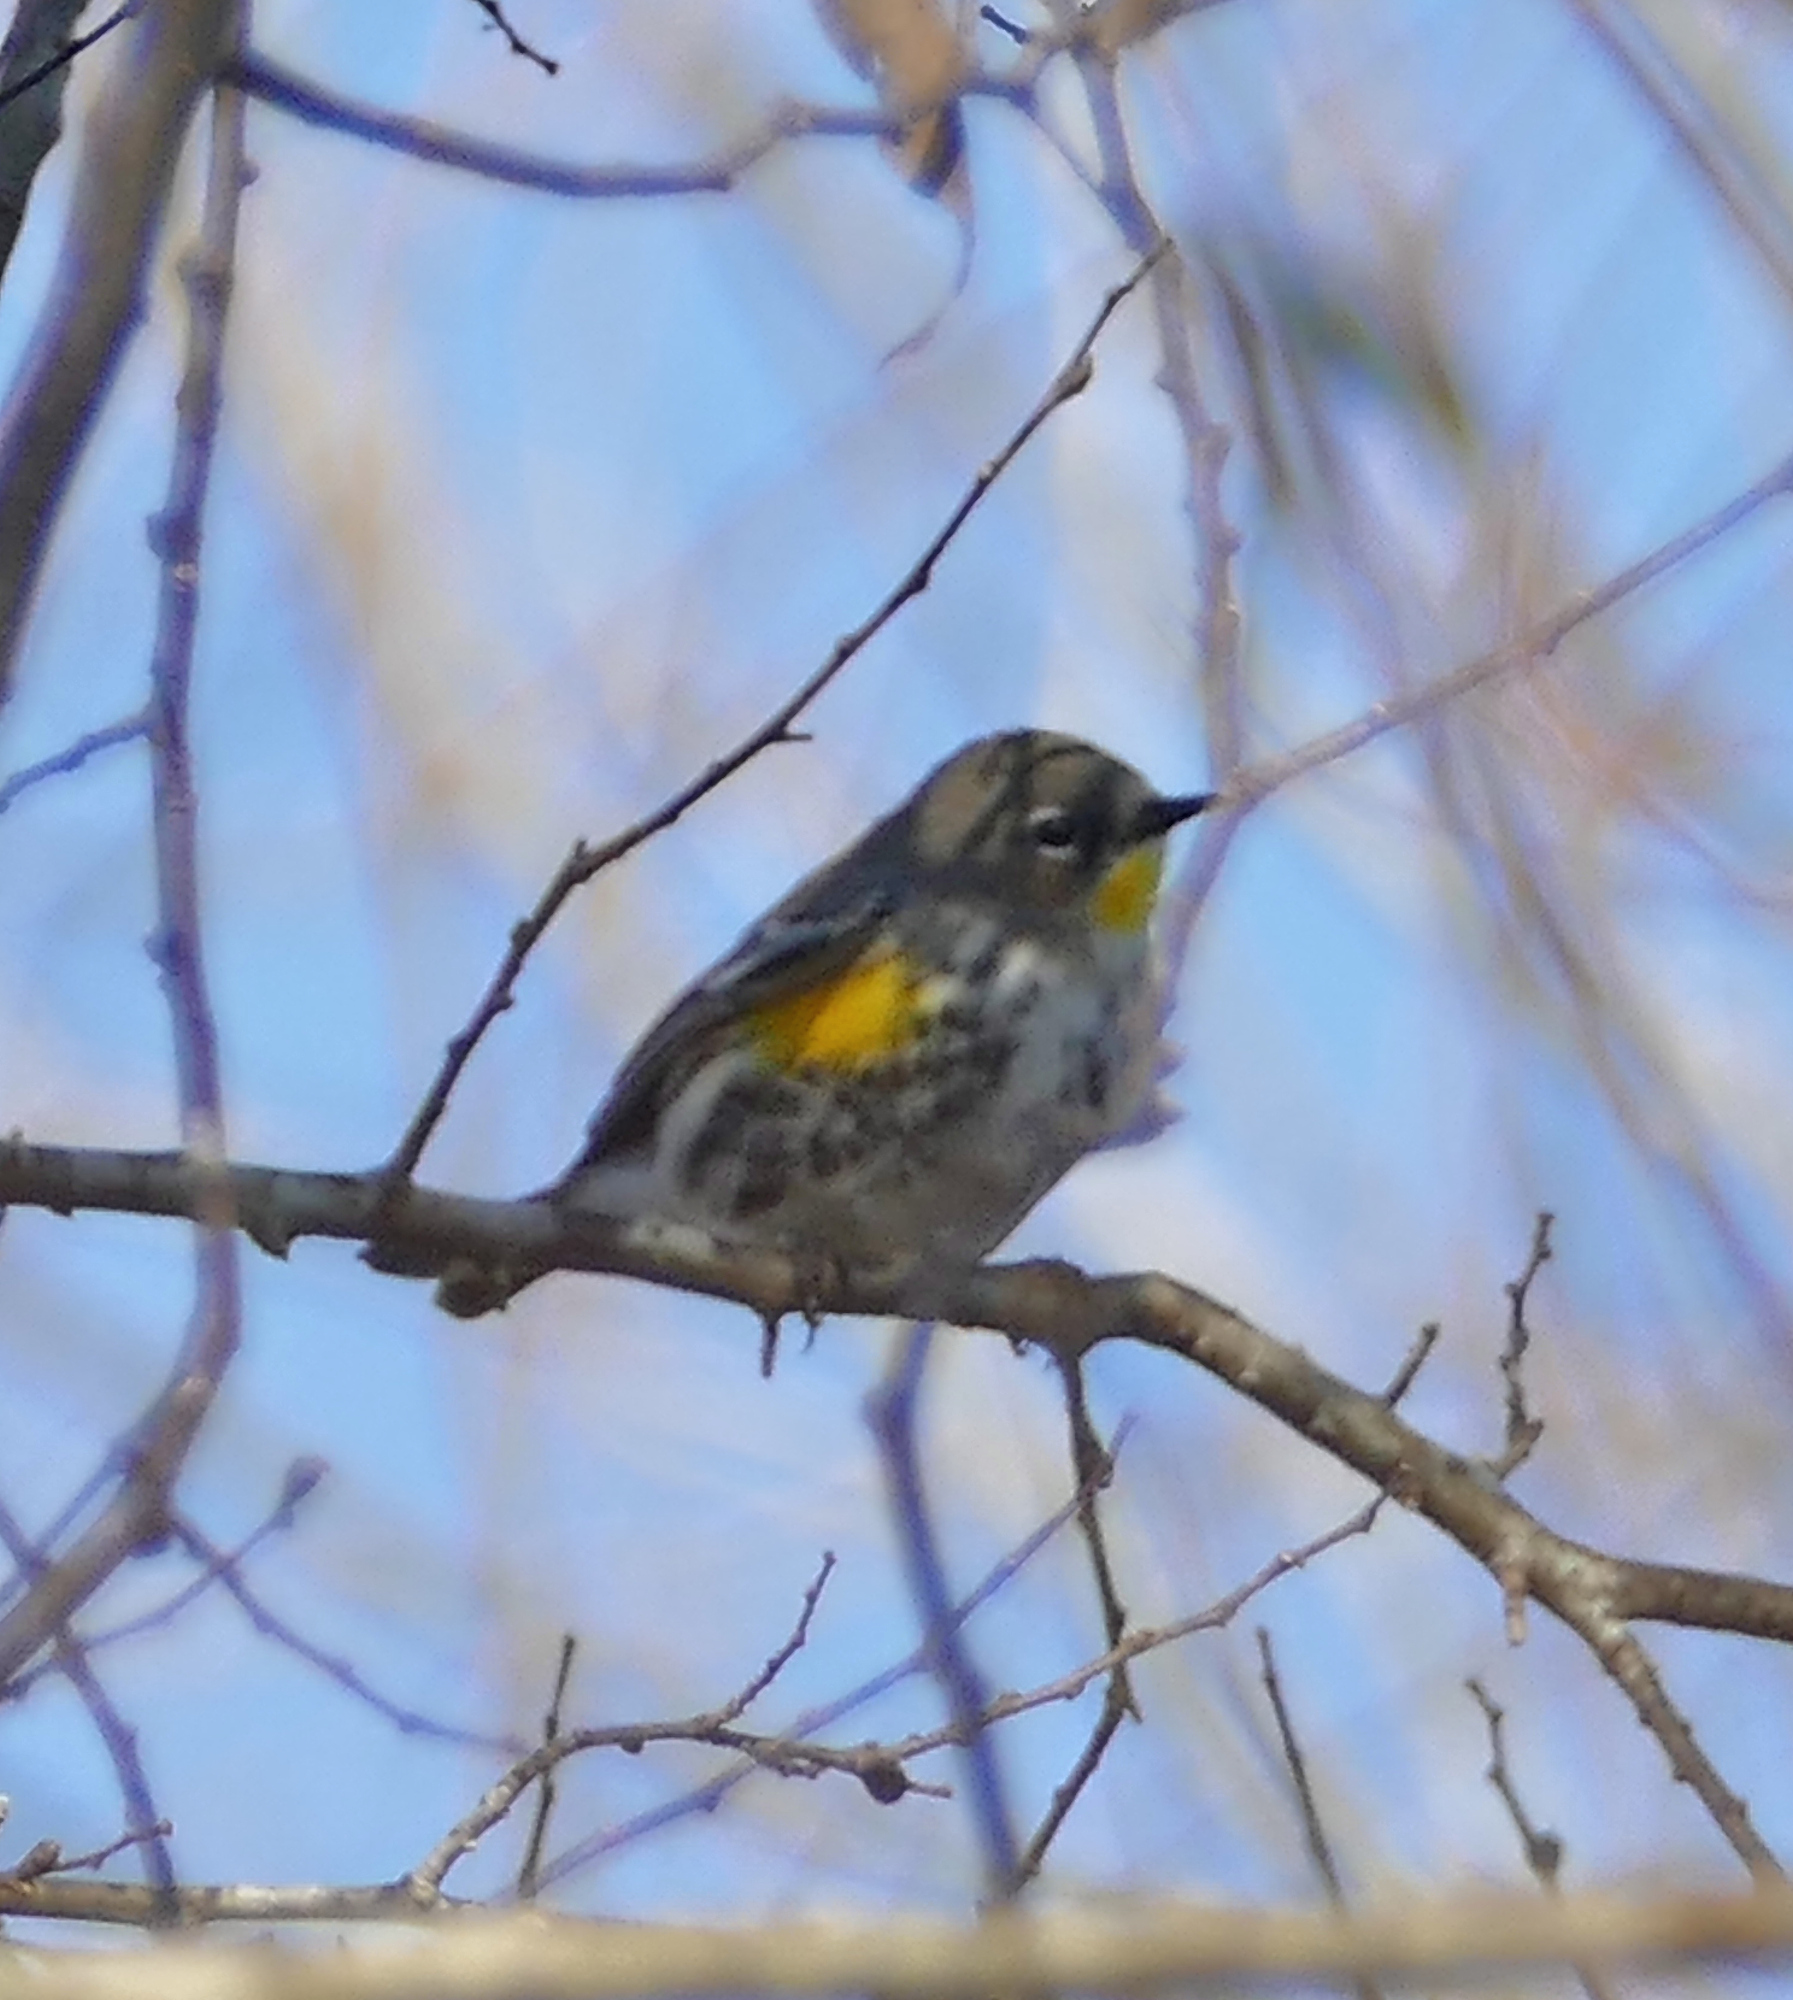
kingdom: Animalia
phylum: Chordata
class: Aves
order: Passeriformes
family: Parulidae
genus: Setophaga
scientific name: Setophaga auduboni
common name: Audubon's warbler
